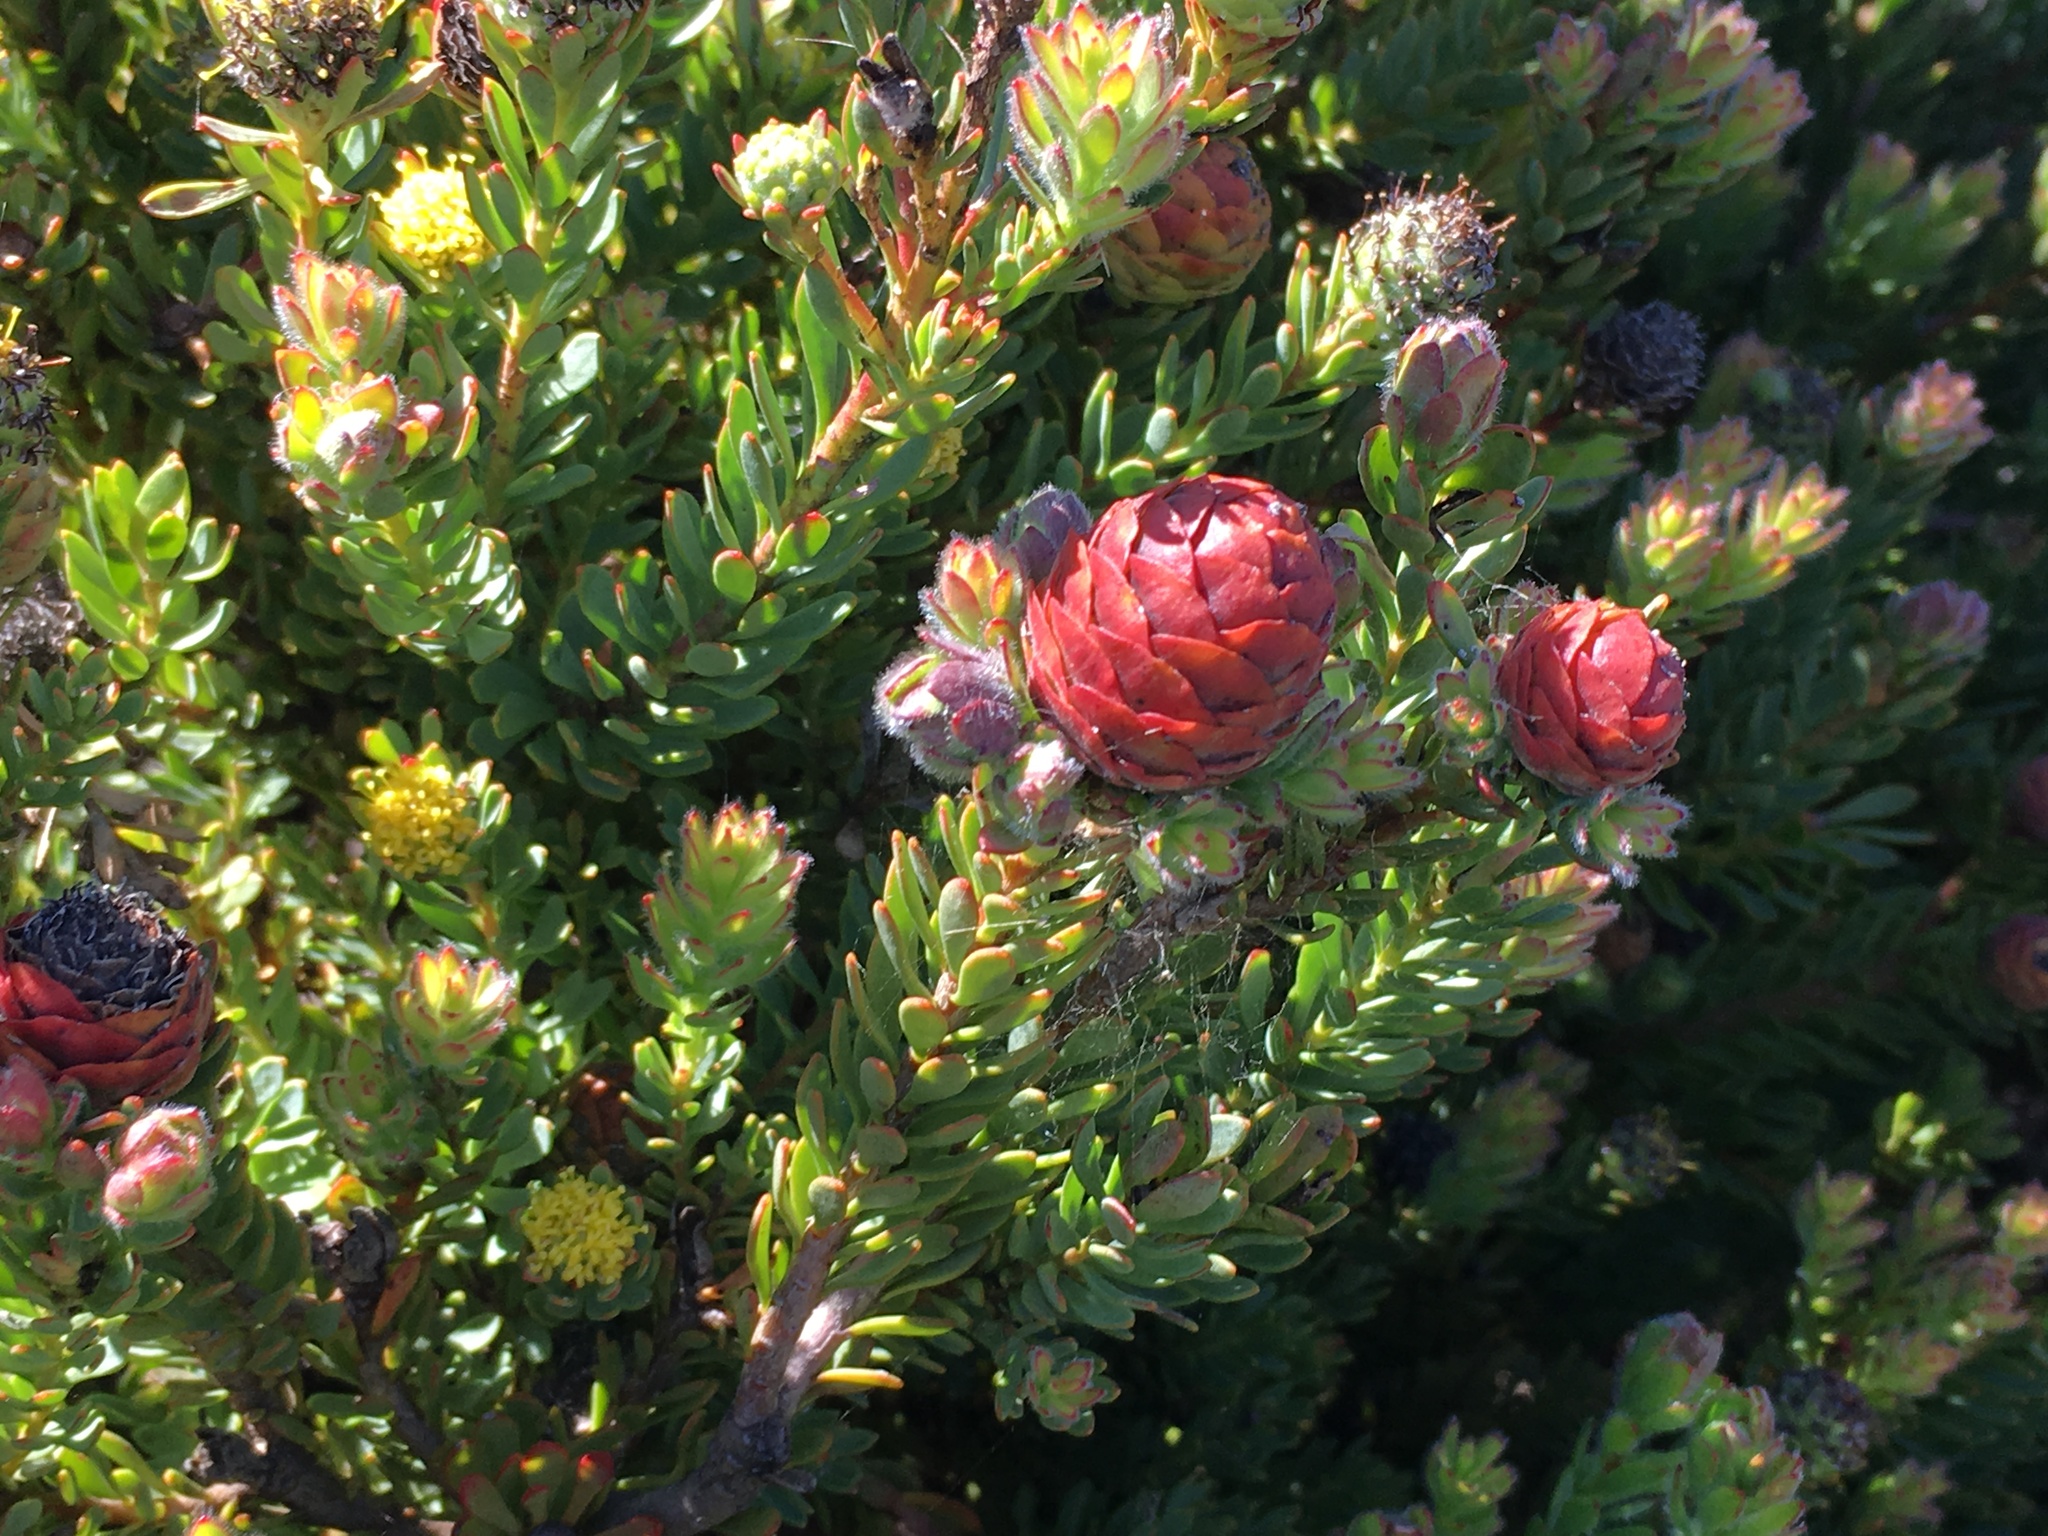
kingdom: Plantae
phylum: Tracheophyta
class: Magnoliopsida
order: Proteales
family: Proteaceae
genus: Leucadendron
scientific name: Leucadendron levisanus
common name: Cape flats conebush
